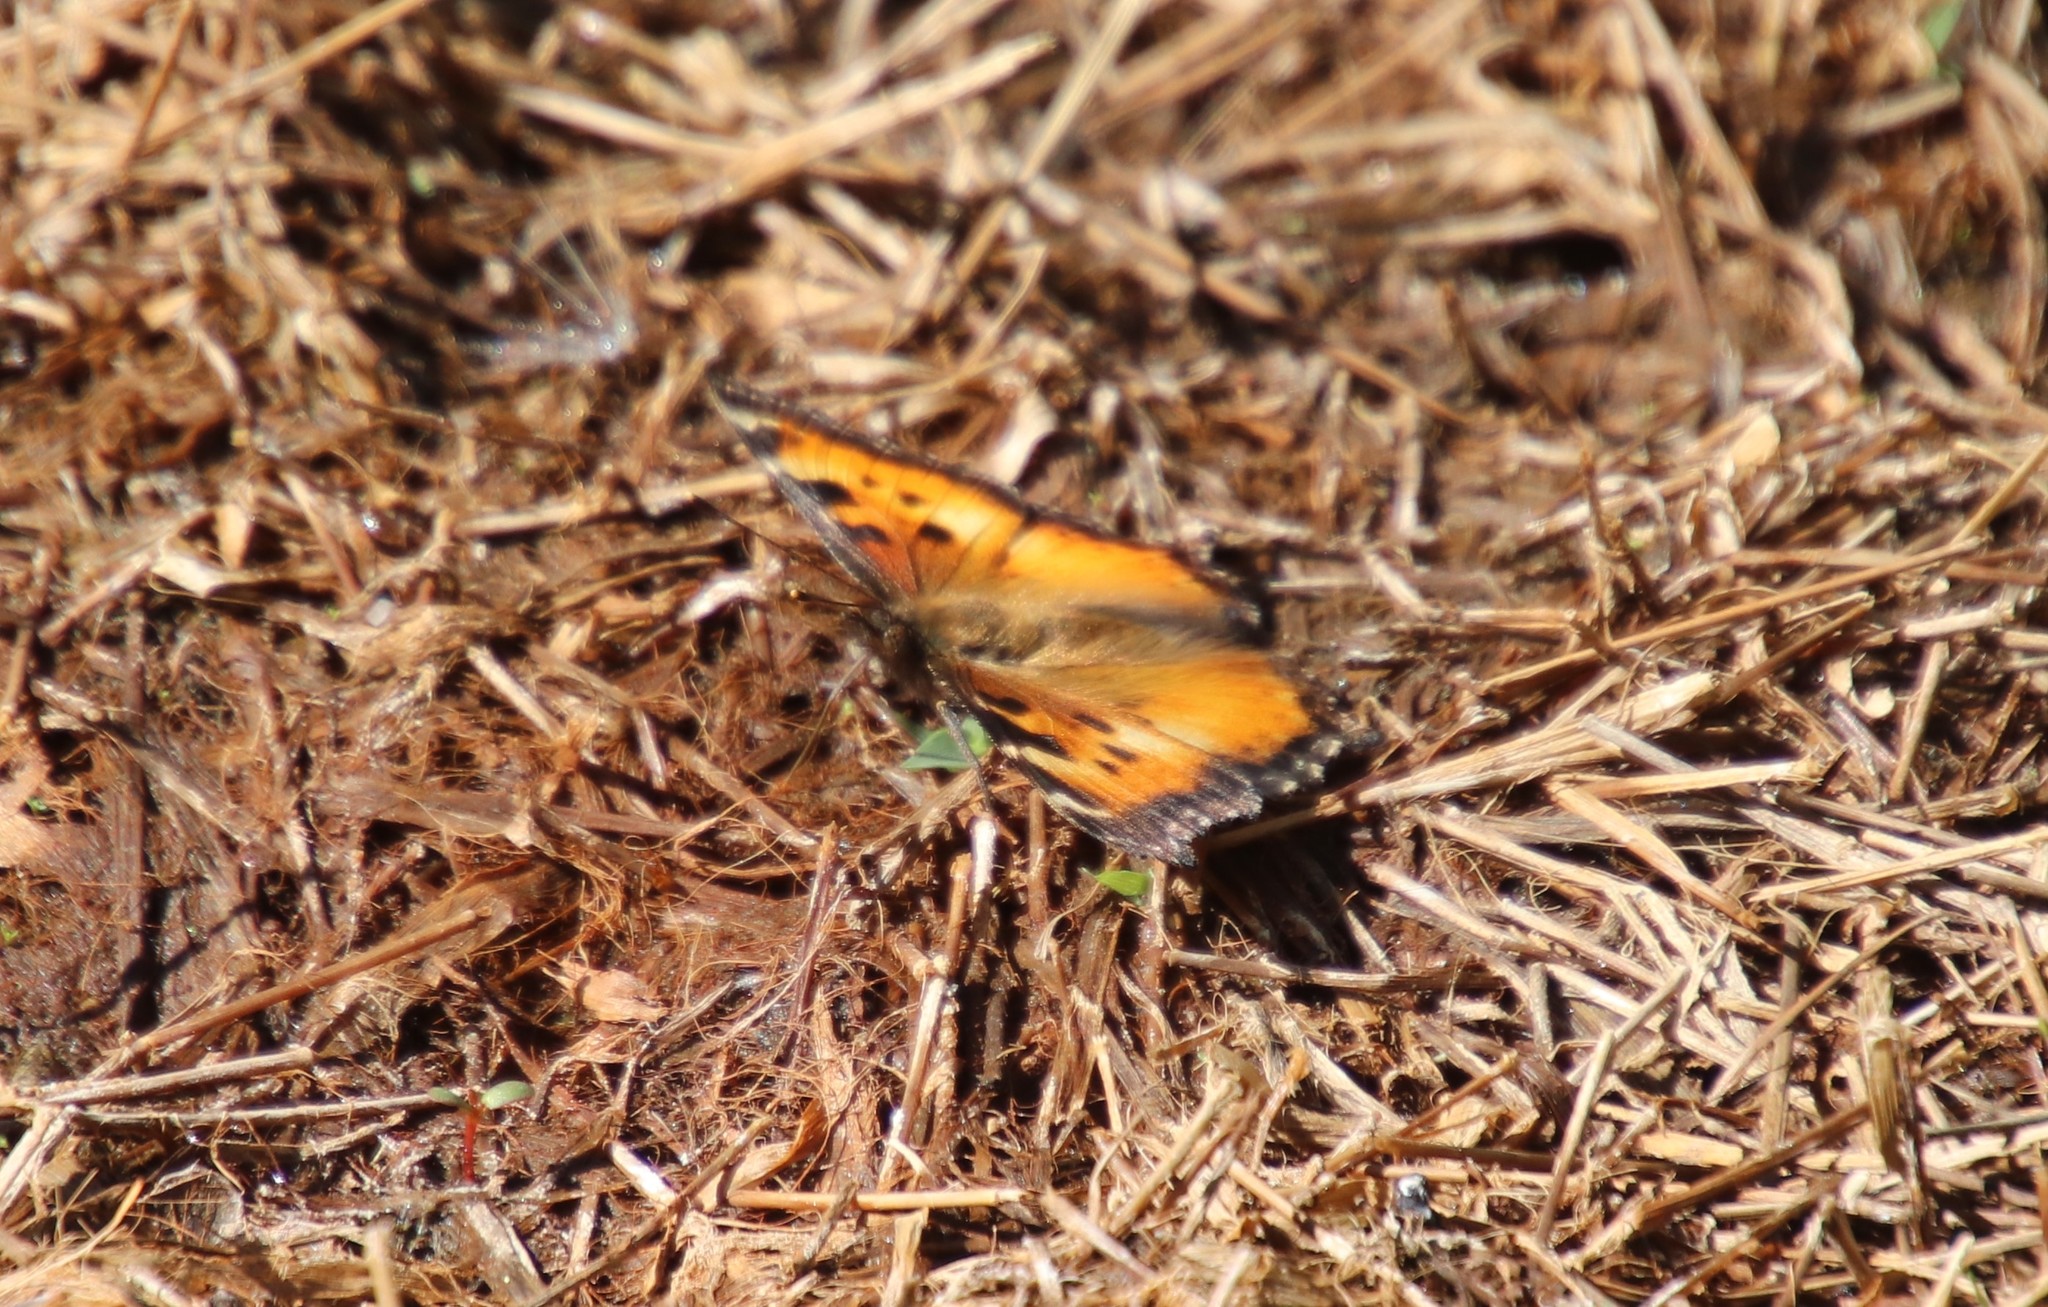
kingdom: Animalia
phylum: Arthropoda
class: Insecta
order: Lepidoptera
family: Nymphalidae
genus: Nymphalis
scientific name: Nymphalis californica
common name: California tortoiseshell
